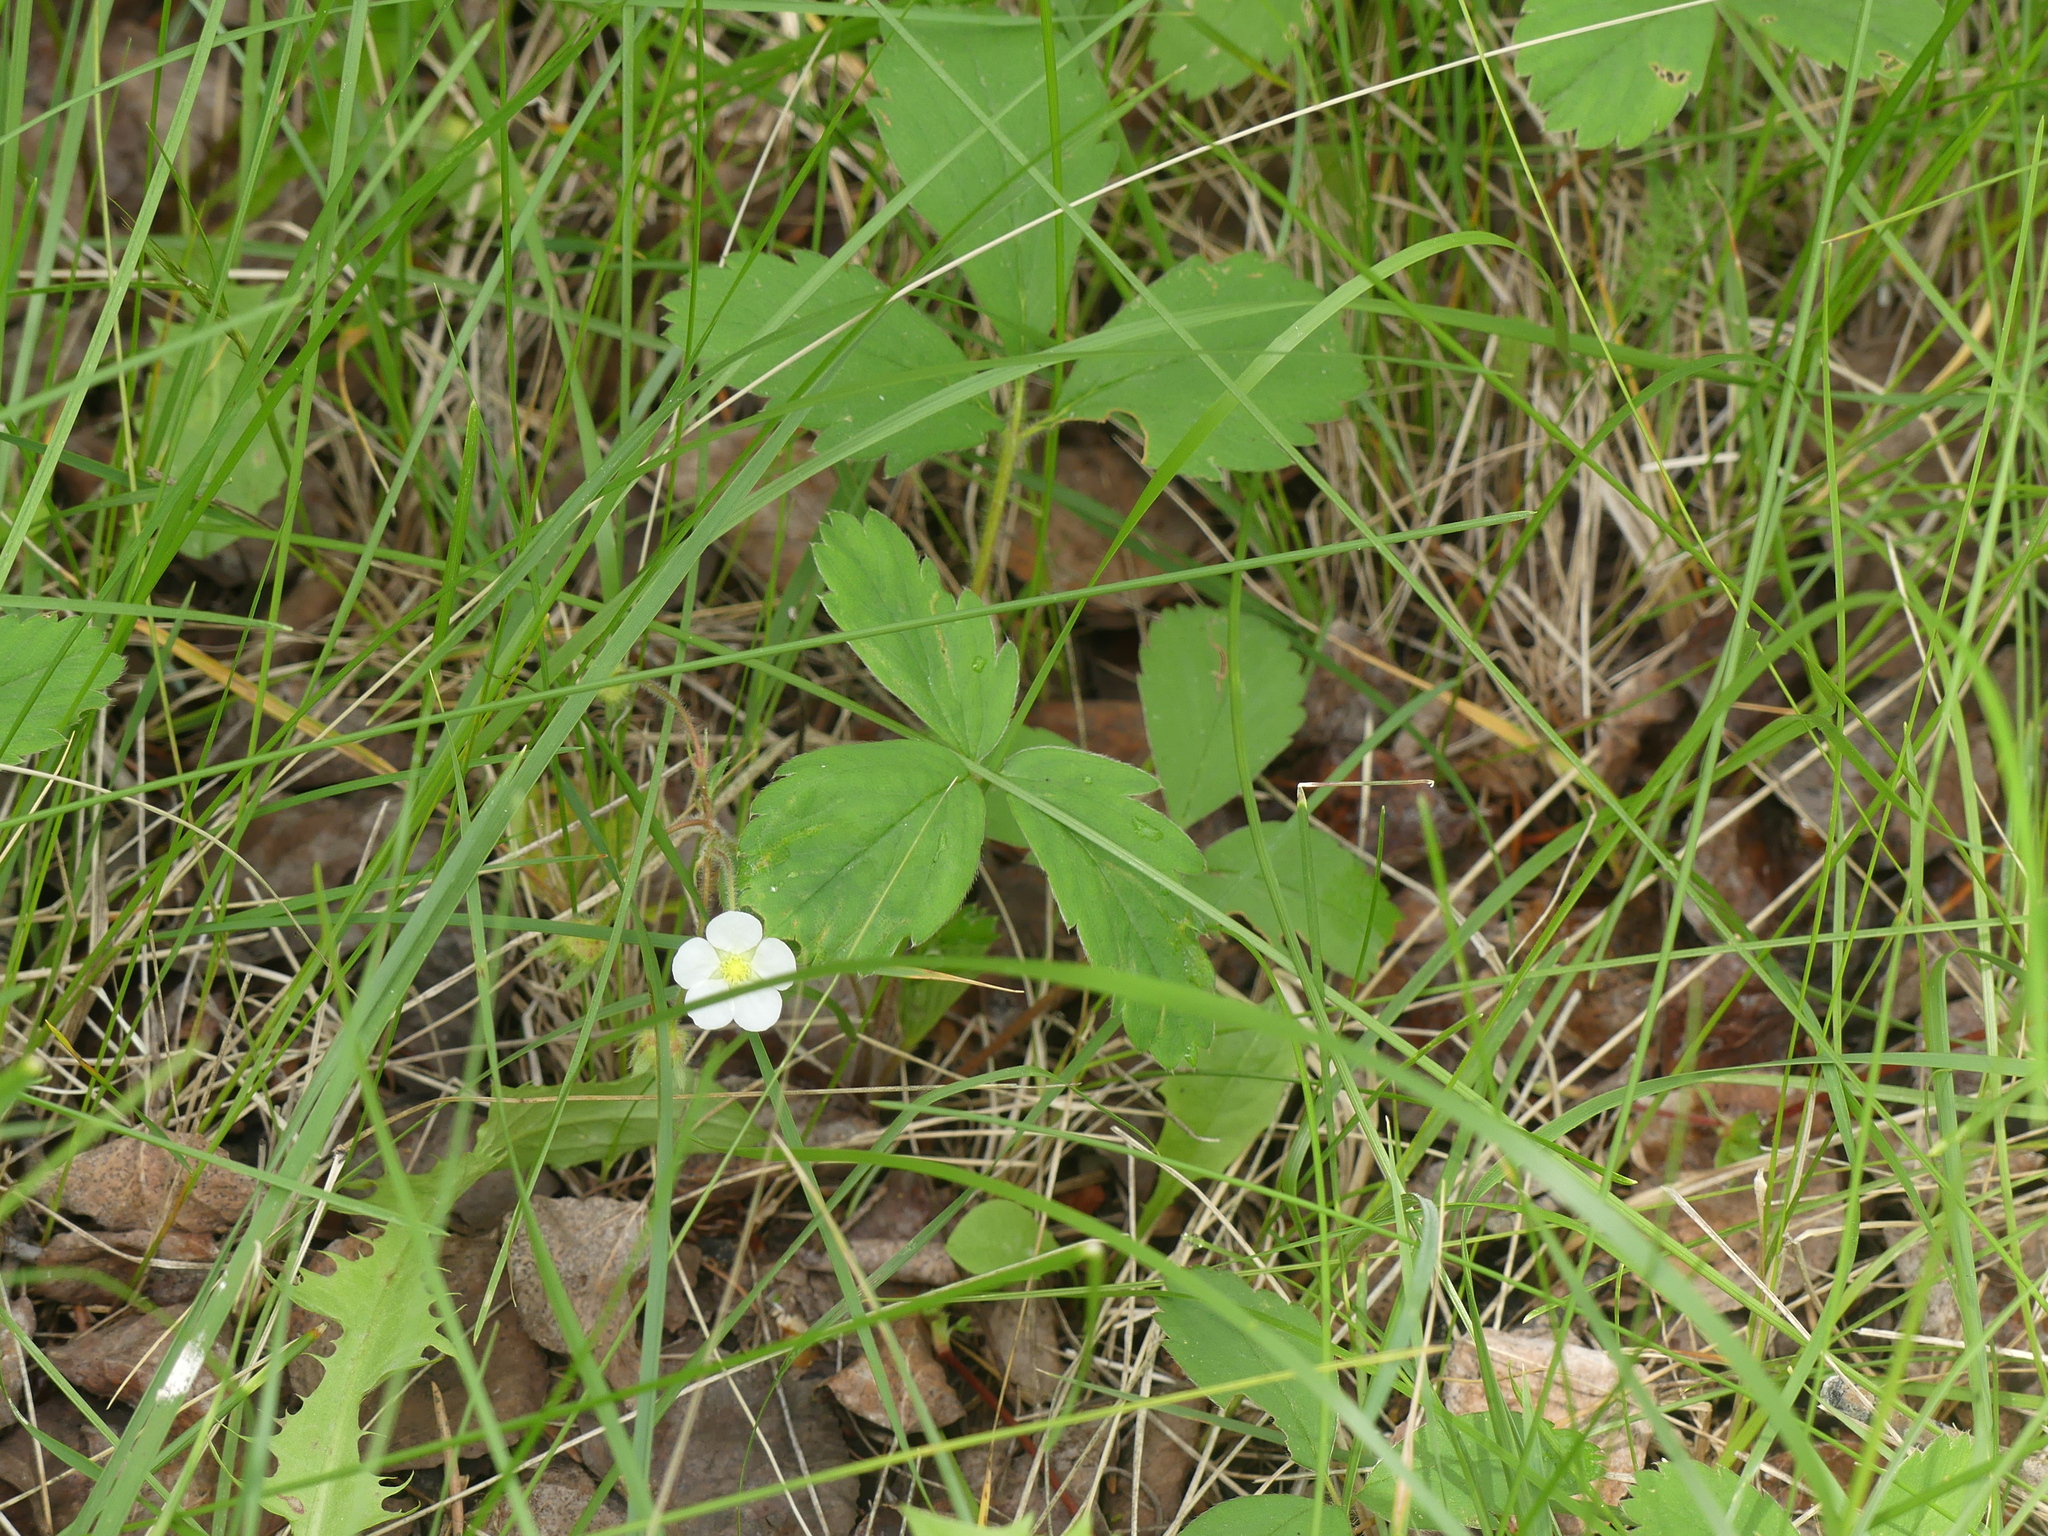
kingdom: Plantae
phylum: Tracheophyta
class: Magnoliopsida
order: Rosales
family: Rosaceae
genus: Fragaria
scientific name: Fragaria virginiana
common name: Thickleaved wild strawberry
